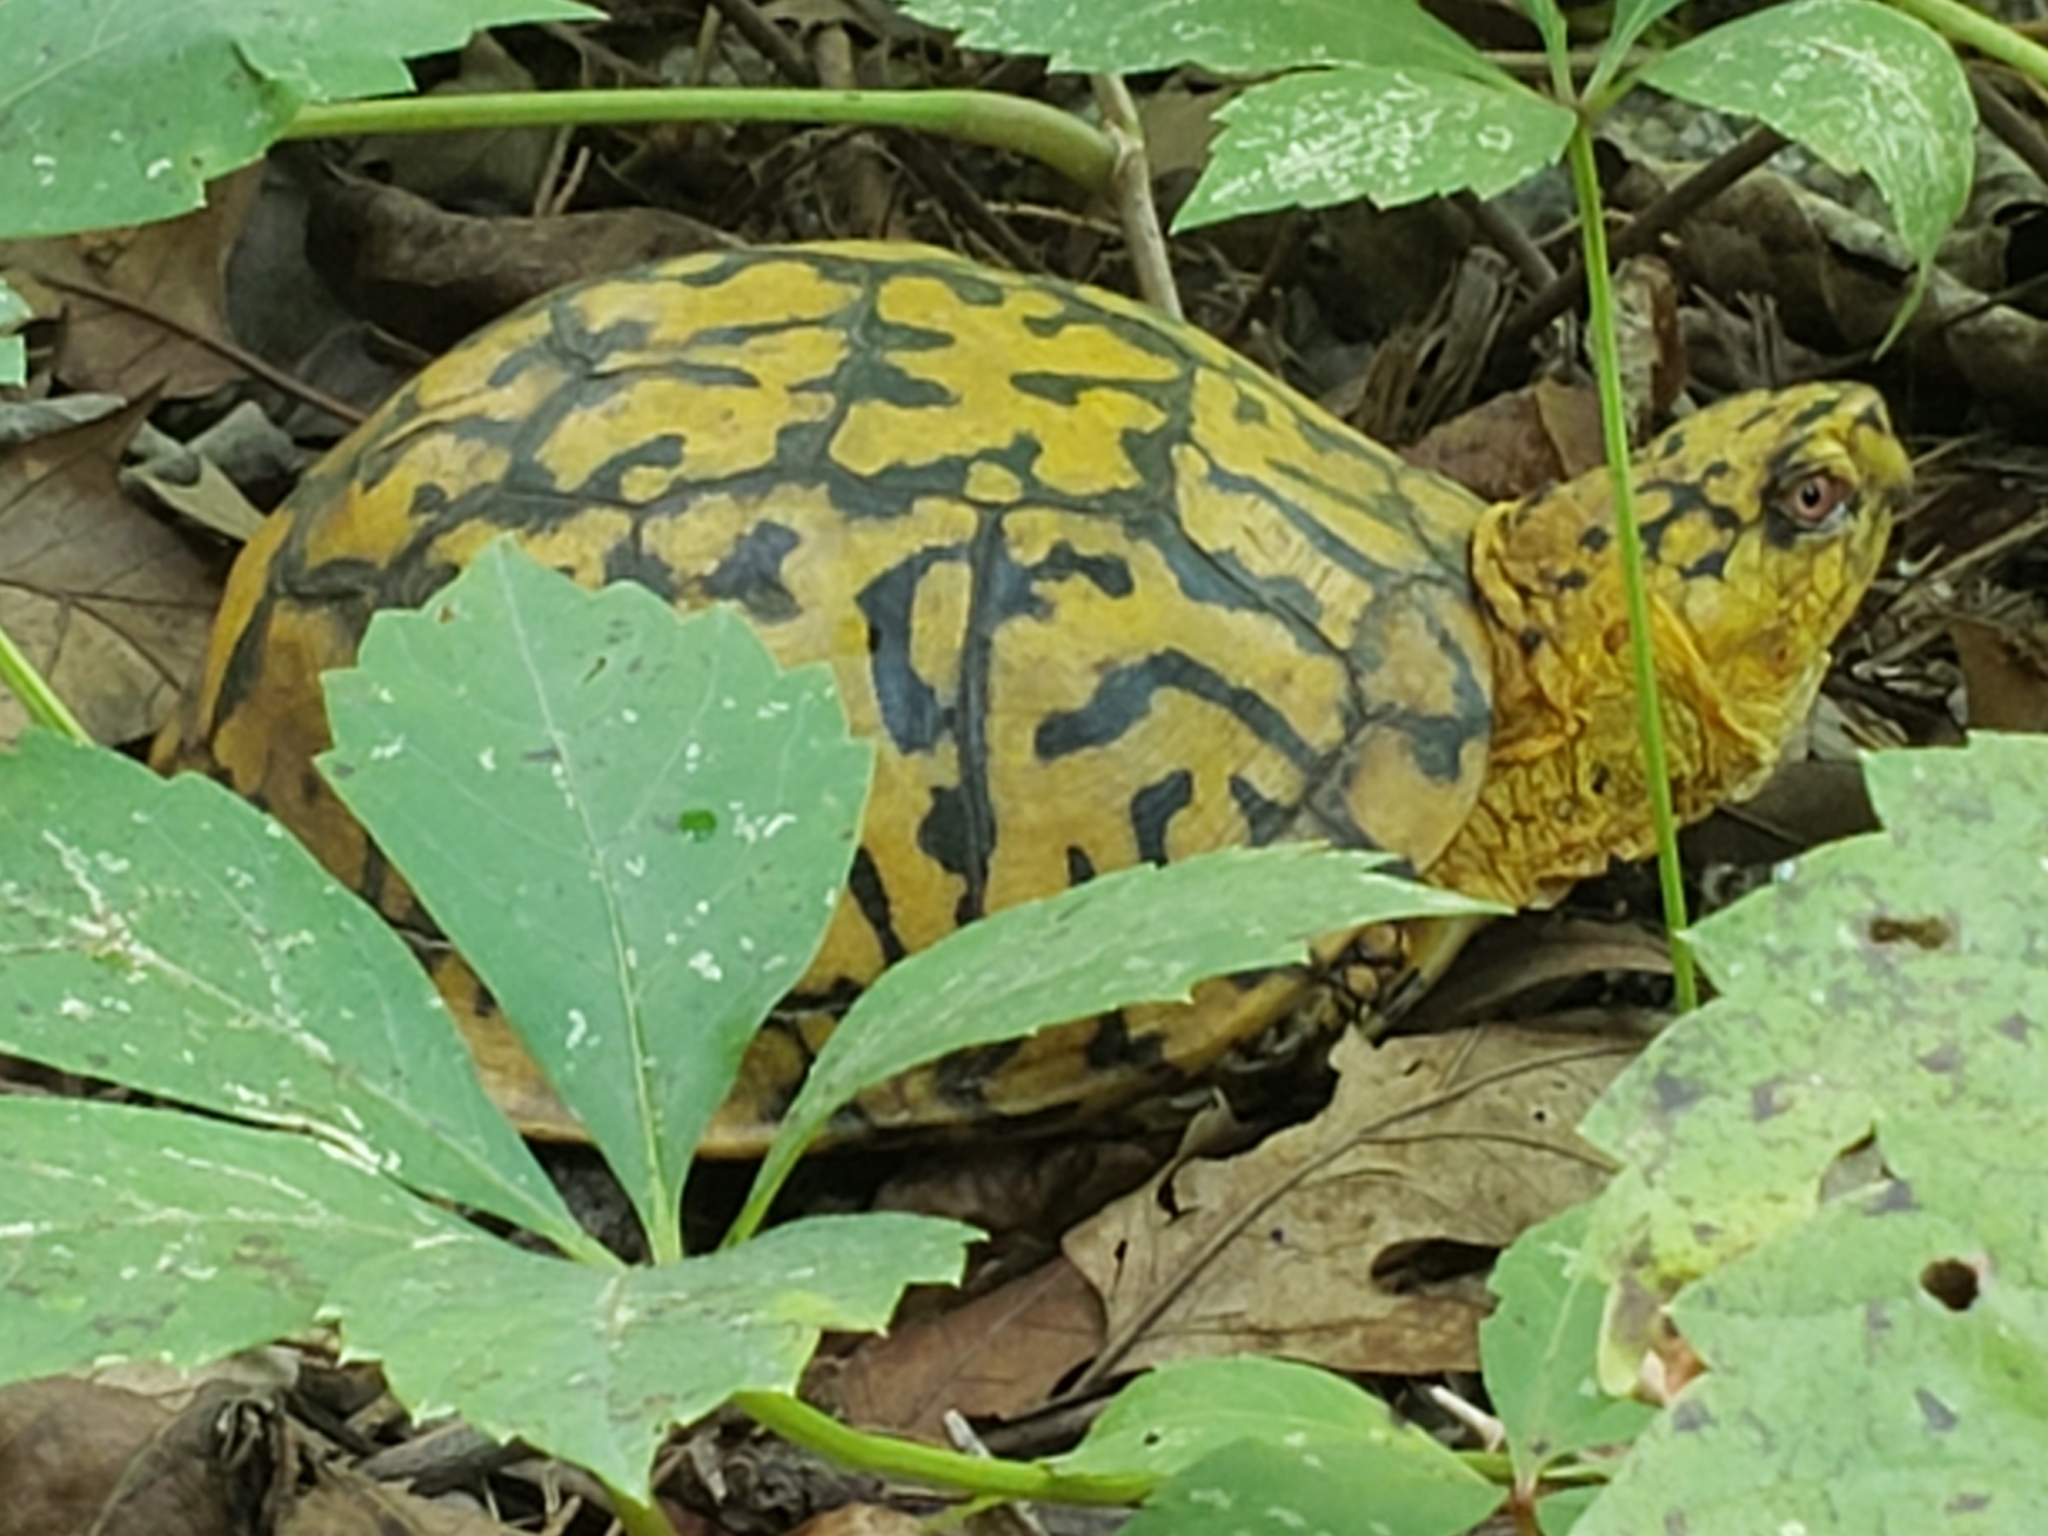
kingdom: Animalia
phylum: Chordata
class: Testudines
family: Emydidae
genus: Terrapene
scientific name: Terrapene carolina
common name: Common box turtle
